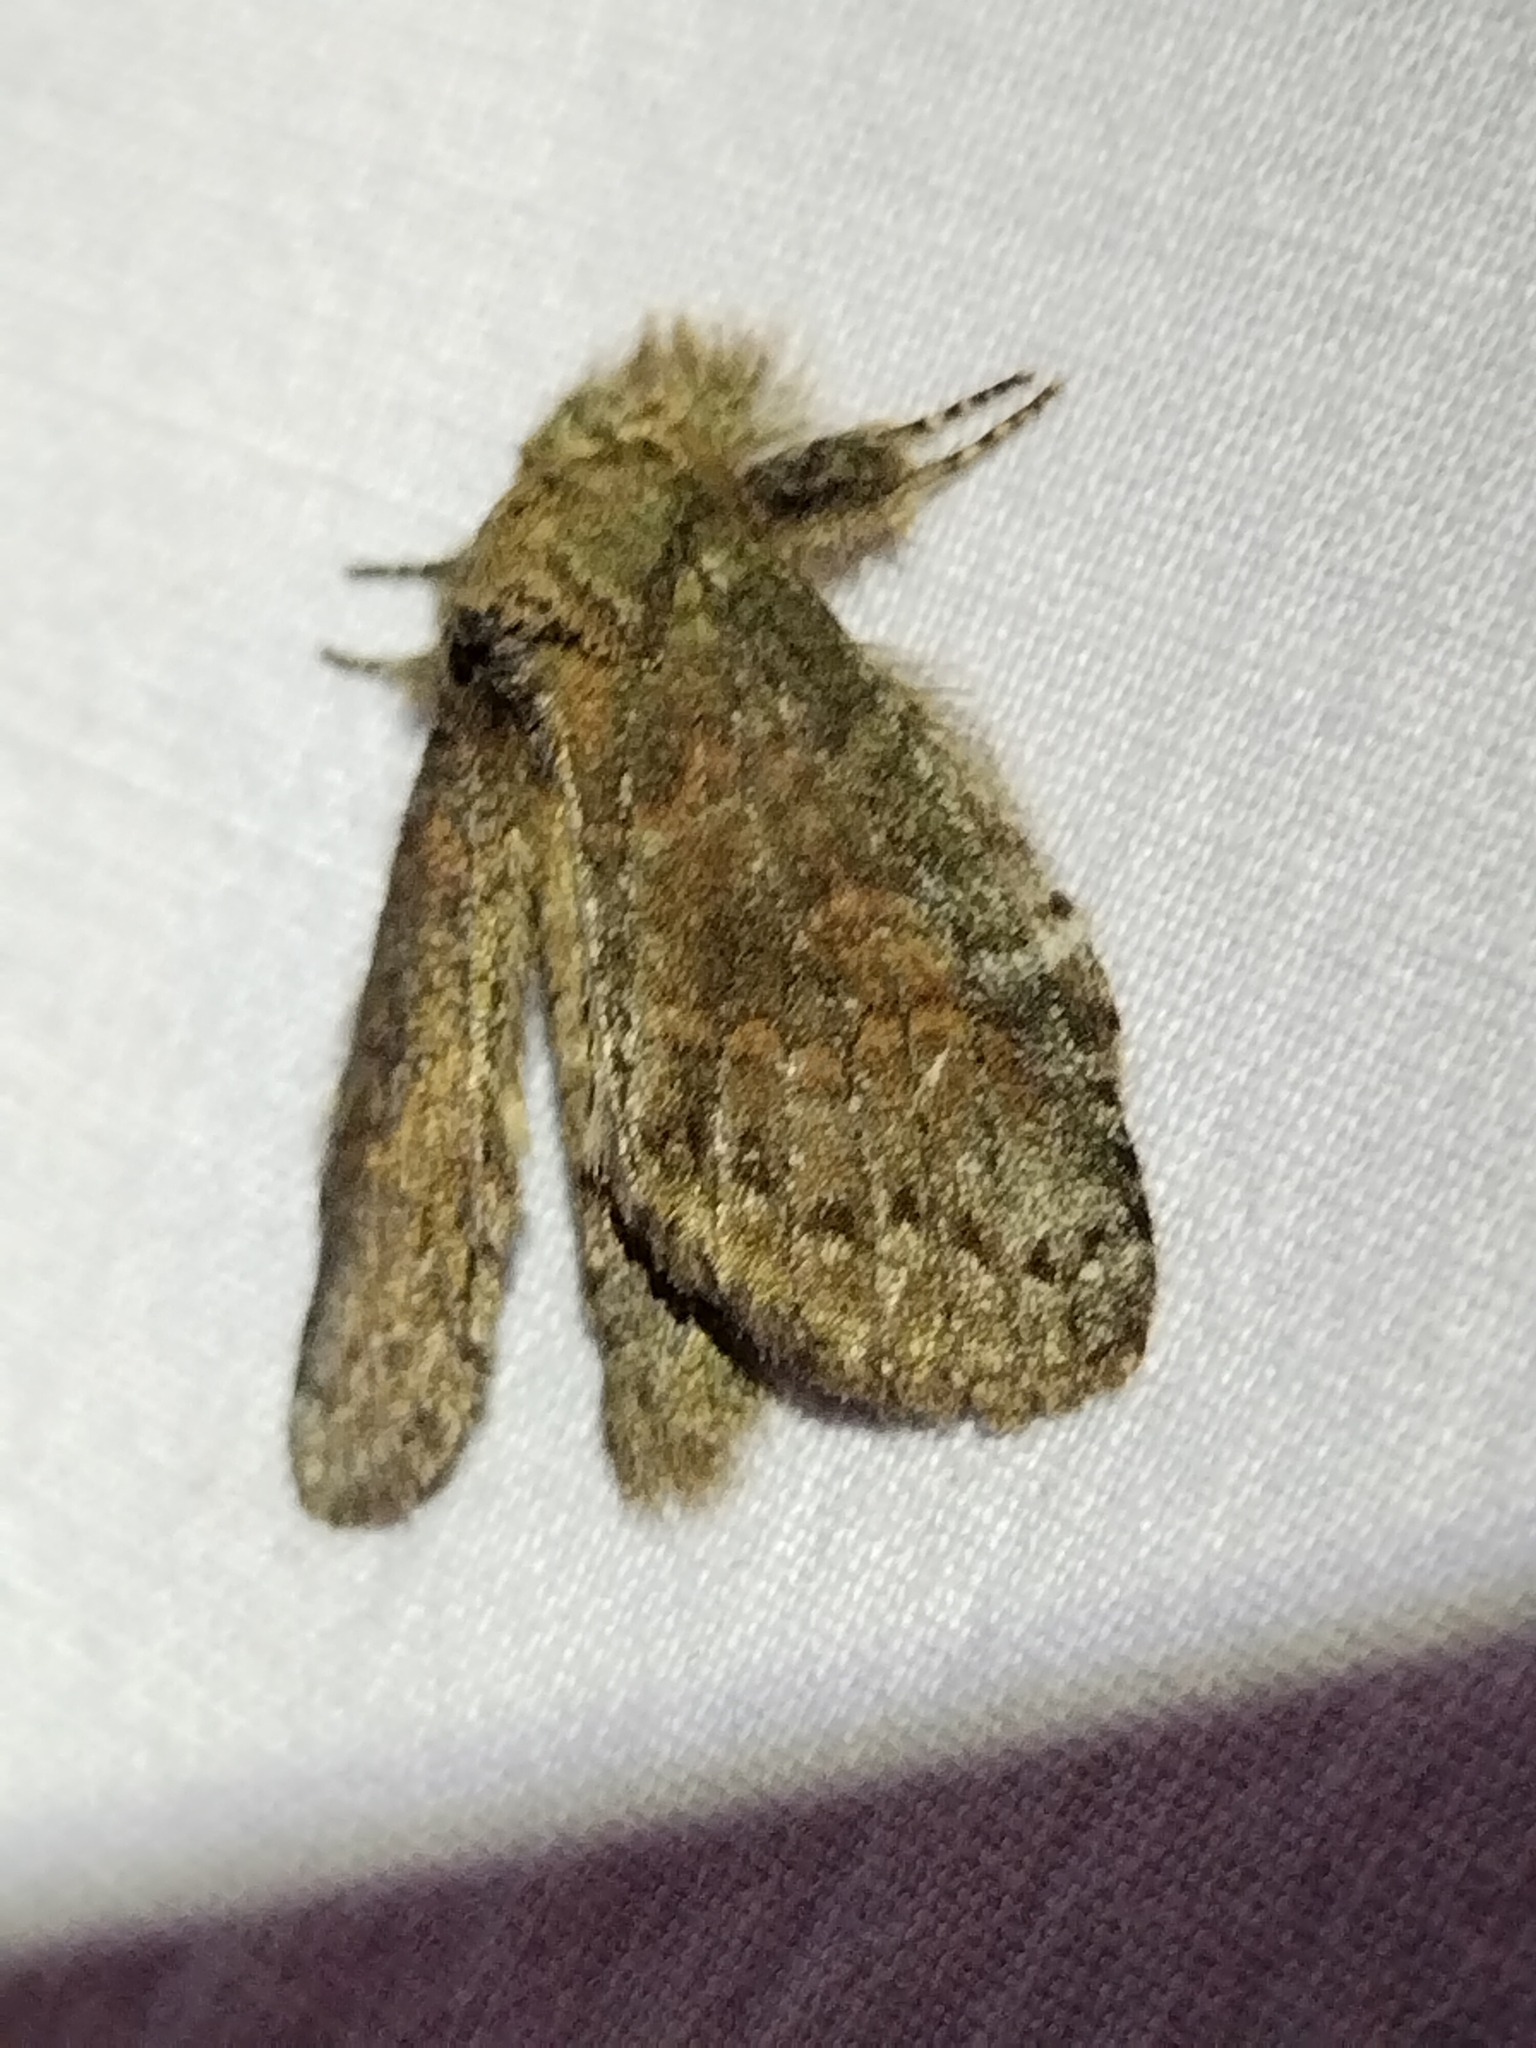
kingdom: Animalia
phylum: Arthropoda
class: Insecta
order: Lepidoptera
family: Notodontidae
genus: Disphragis
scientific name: Disphragis Cecrita guttivitta
